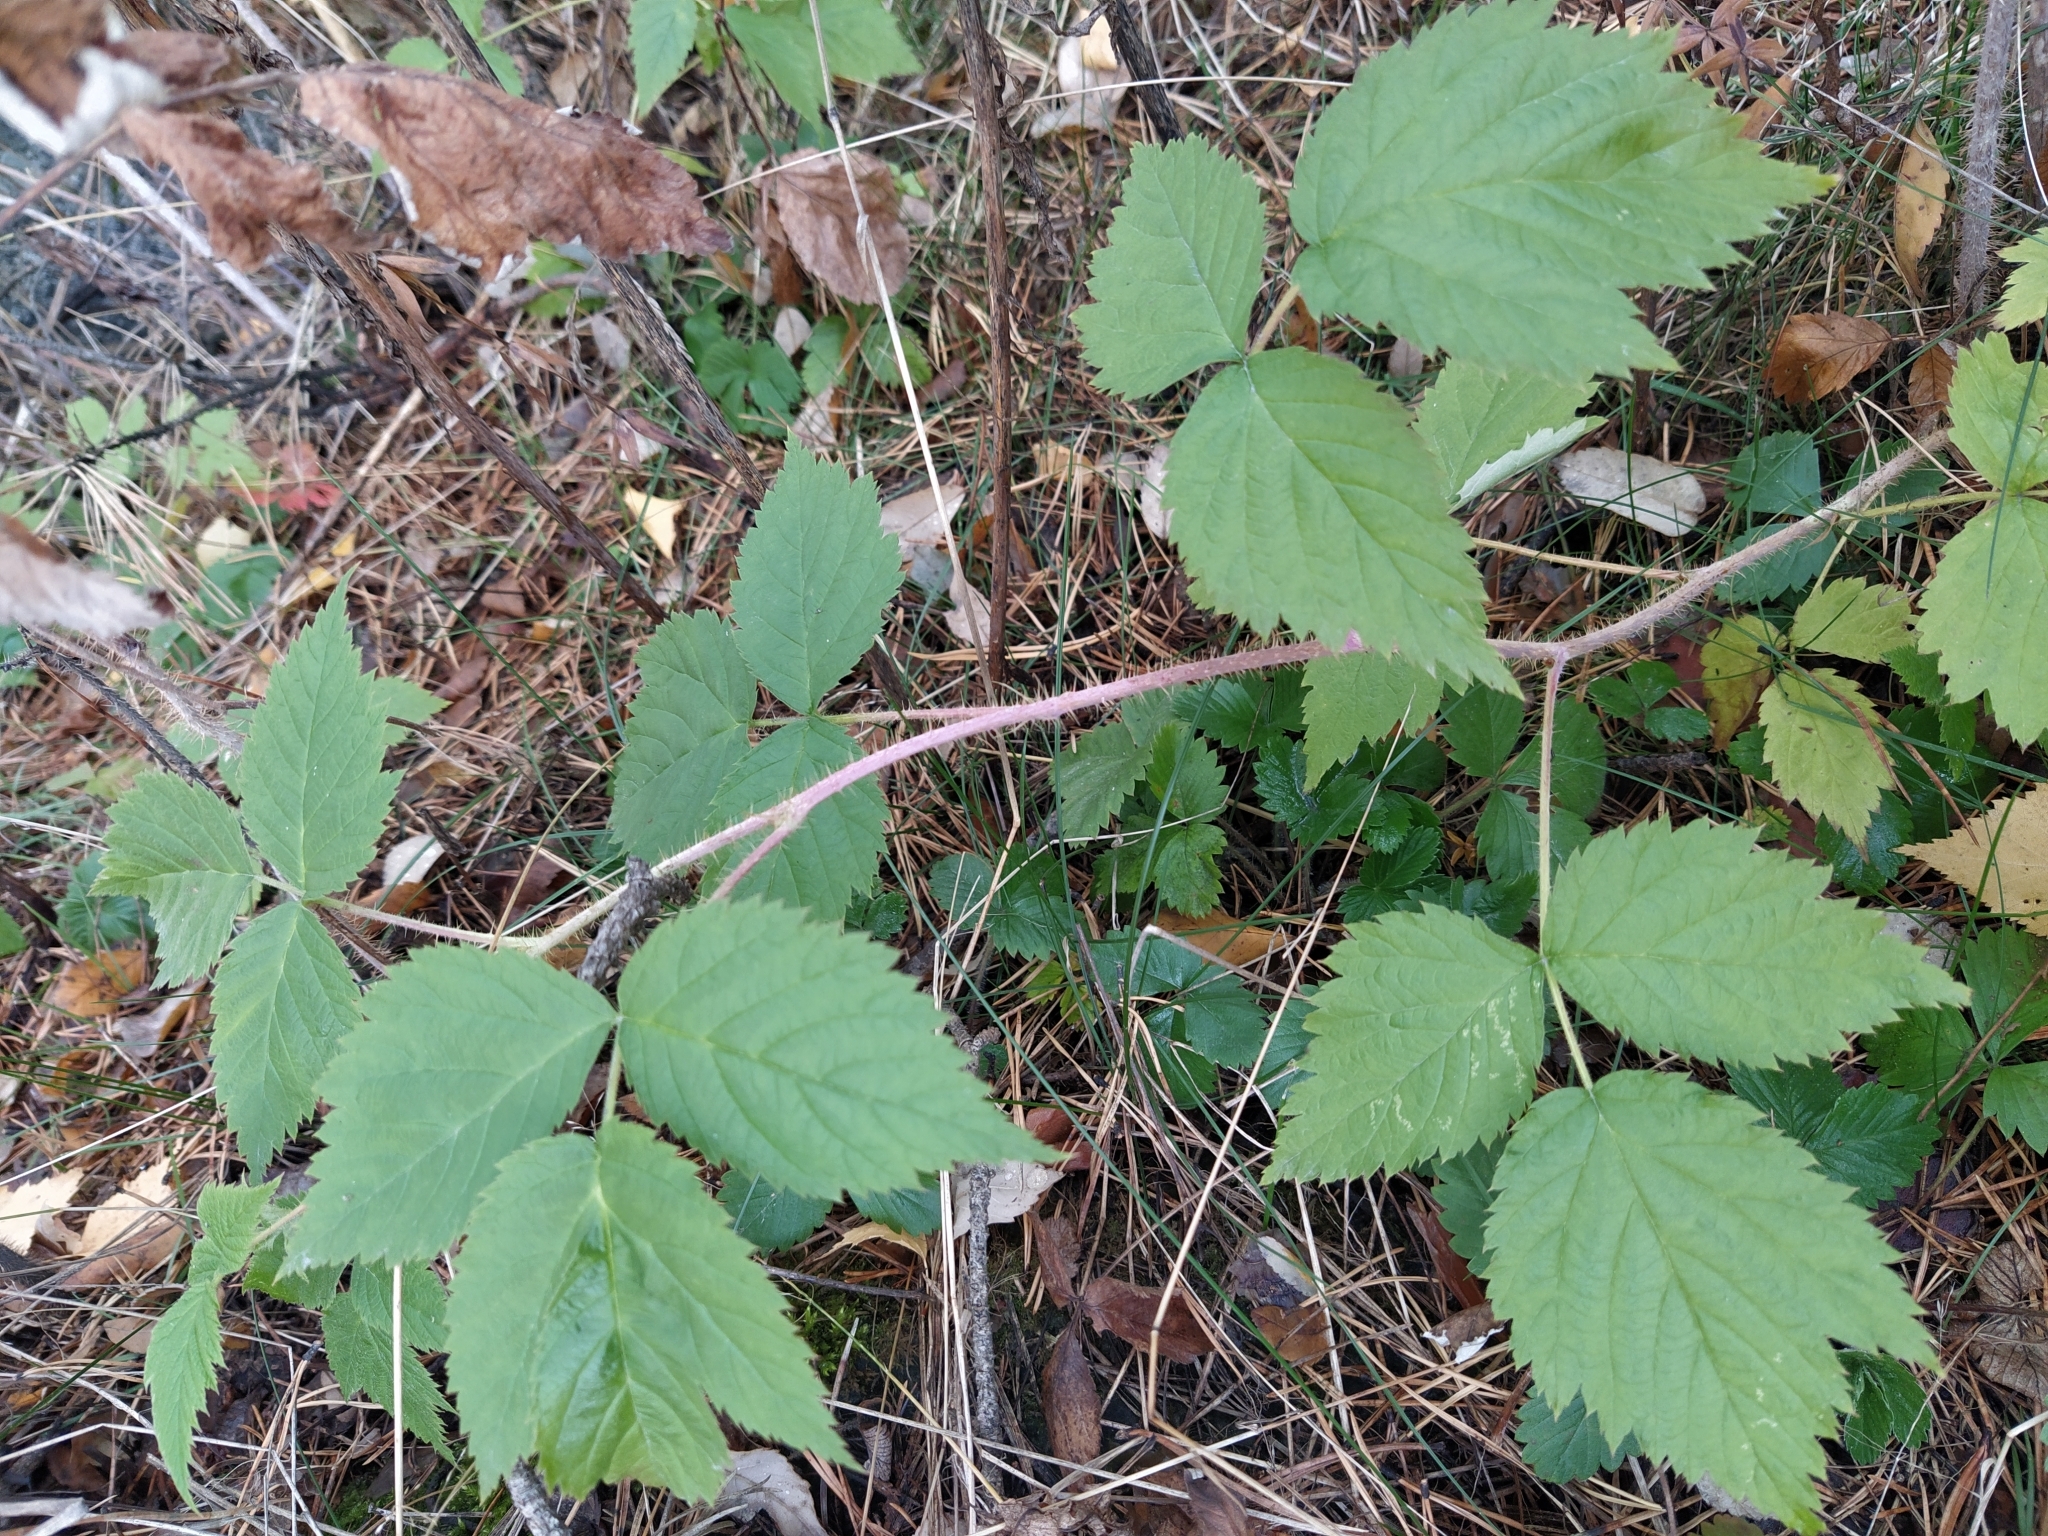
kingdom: Plantae
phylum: Tracheophyta
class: Magnoliopsida
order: Rosales
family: Rosaceae
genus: Rubus
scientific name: Rubus idaeus
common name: Raspberry
